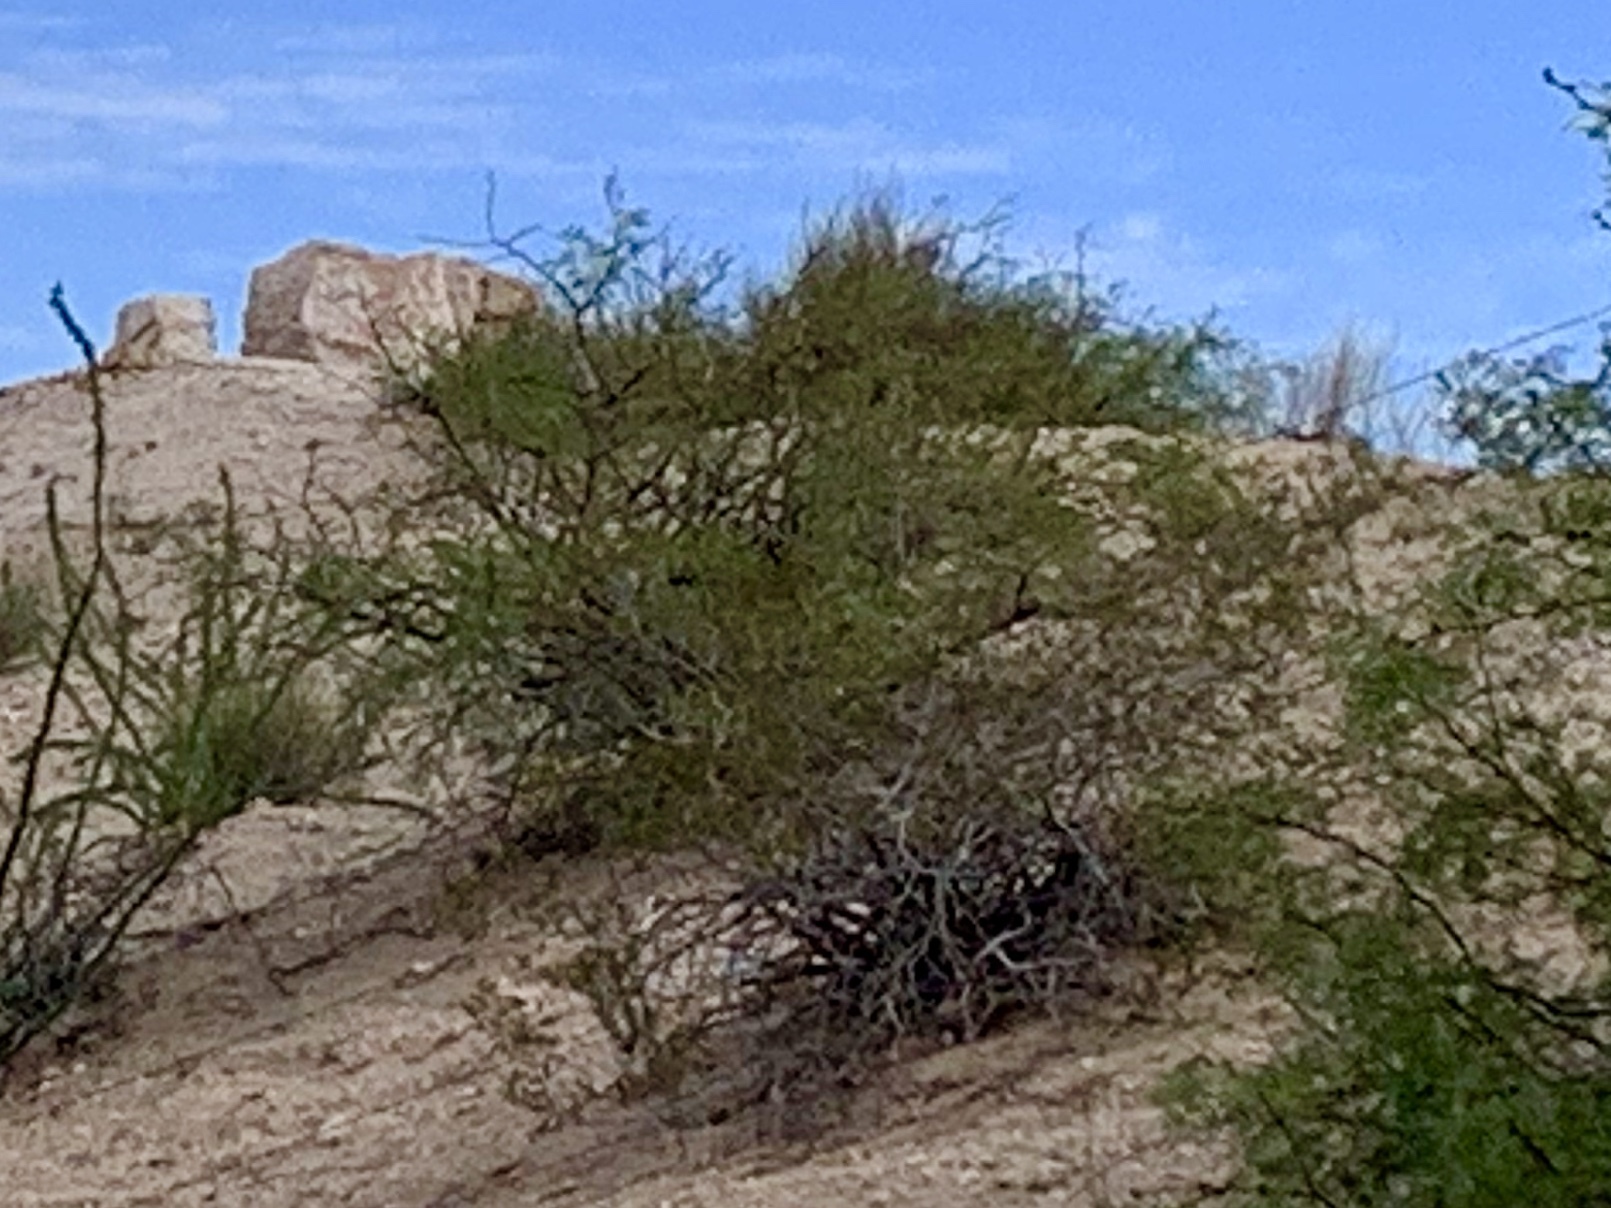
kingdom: Plantae
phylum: Tracheophyta
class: Magnoliopsida
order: Zygophyllales
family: Zygophyllaceae
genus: Larrea
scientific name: Larrea tridentata
